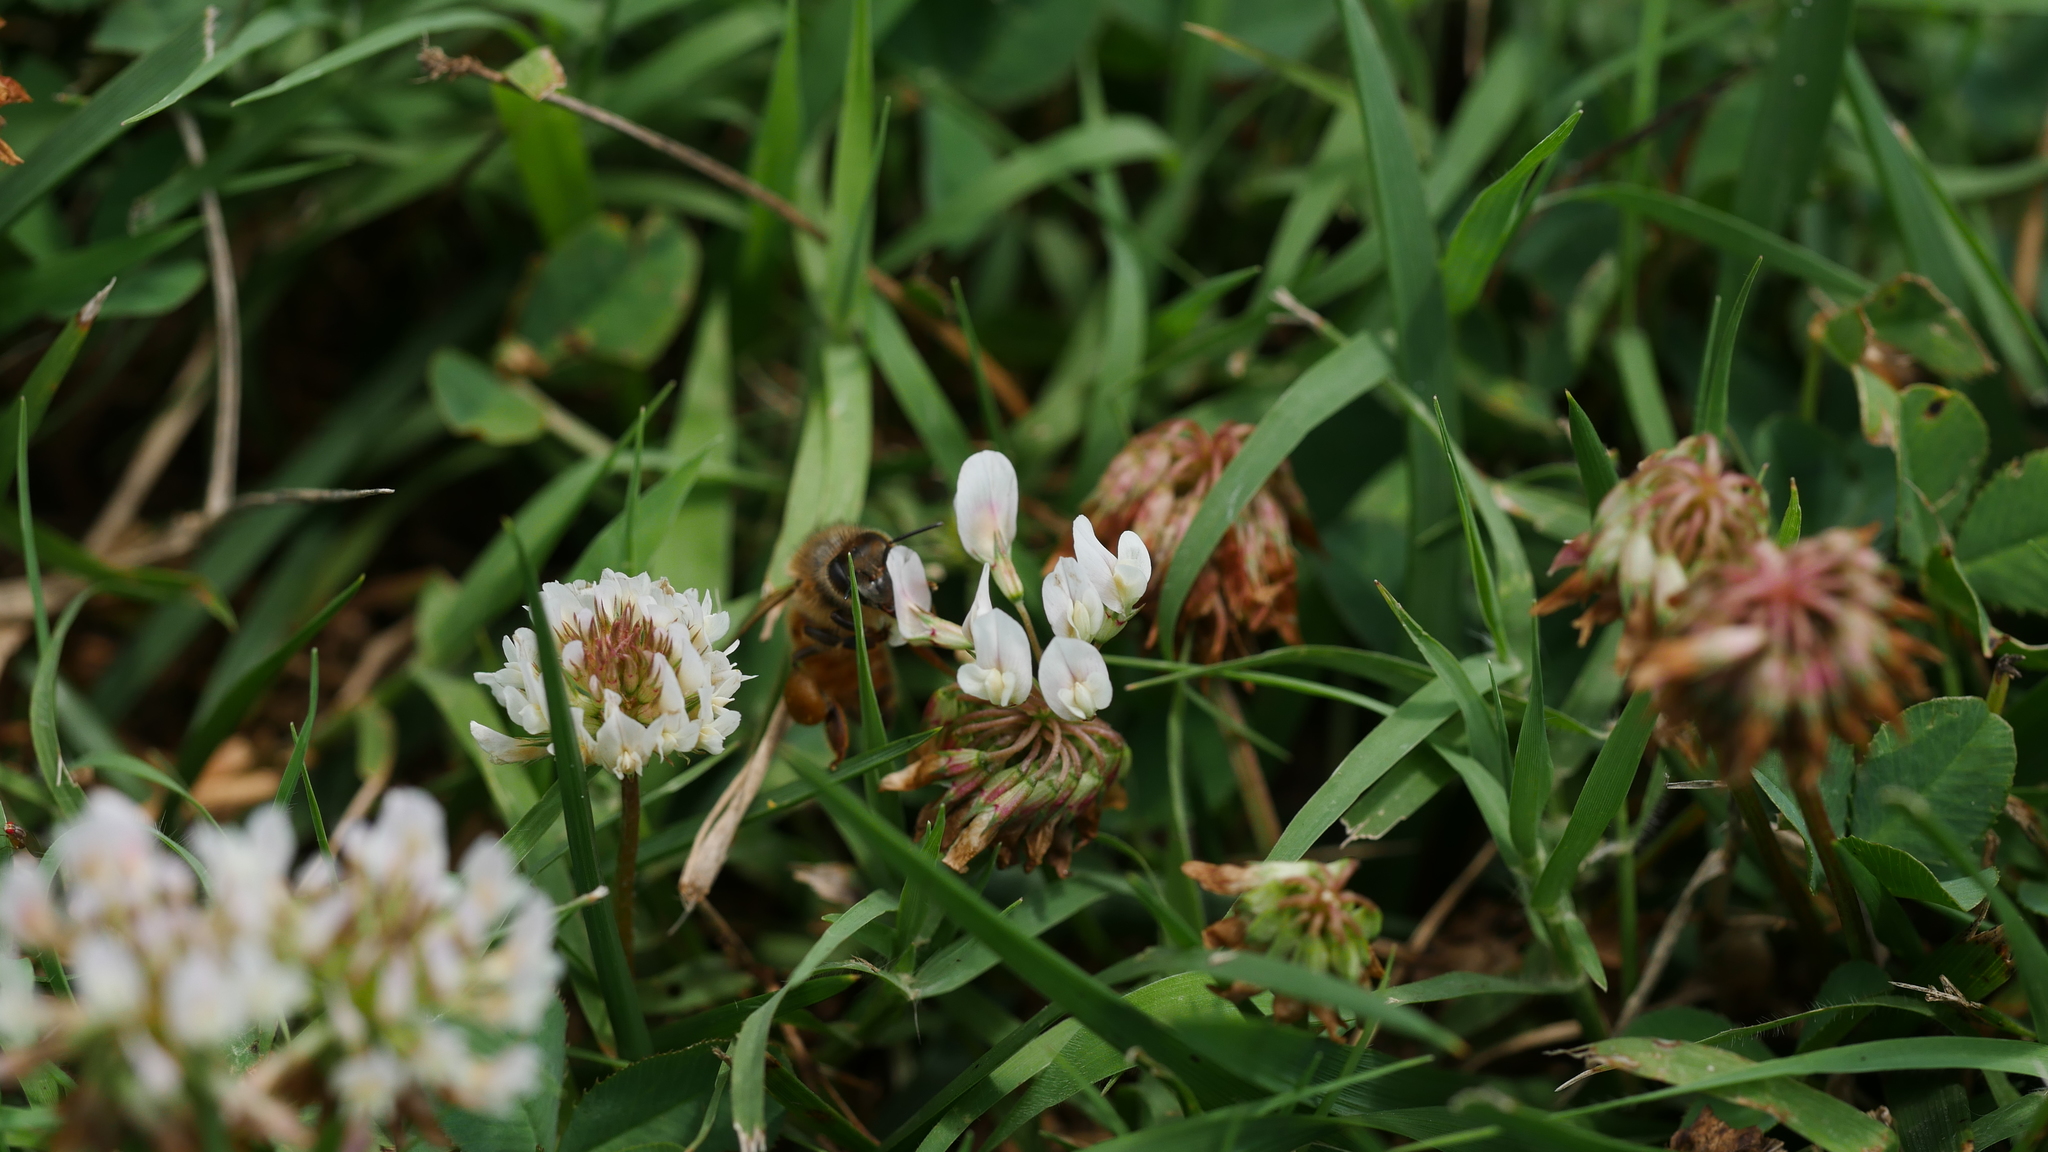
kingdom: Animalia
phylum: Arthropoda
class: Insecta
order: Hymenoptera
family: Apidae
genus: Apis
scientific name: Apis mellifera
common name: Honey bee
